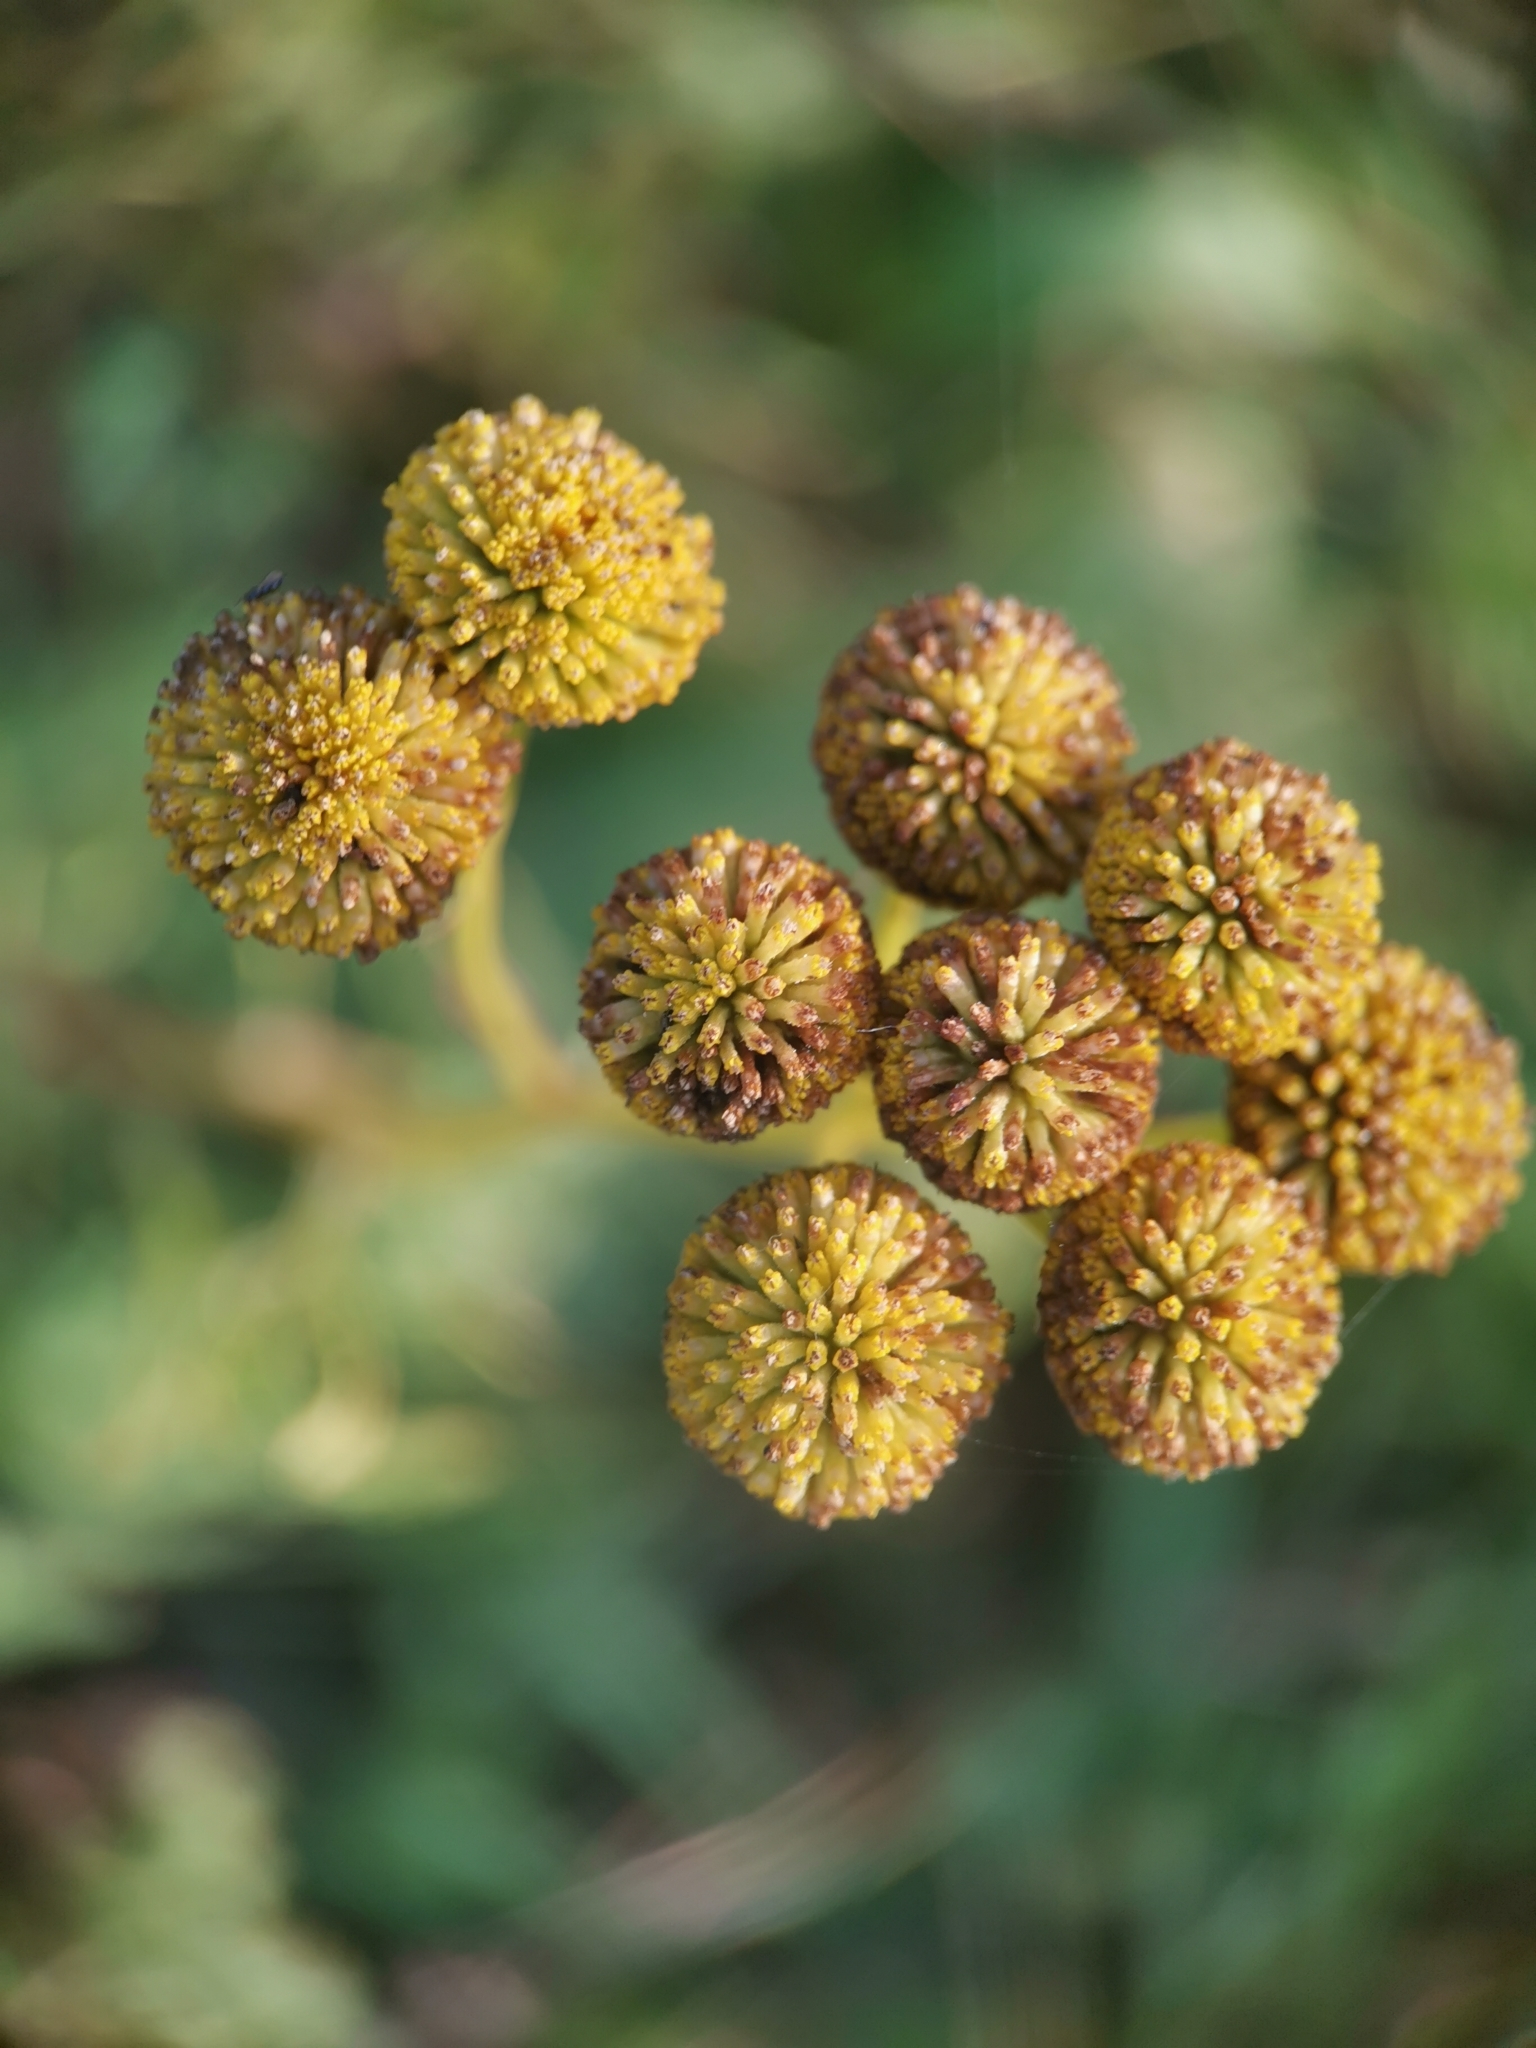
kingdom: Plantae
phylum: Tracheophyta
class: Magnoliopsida
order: Asterales
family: Asteraceae
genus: Tanacetum
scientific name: Tanacetum vulgare
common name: Common tansy
